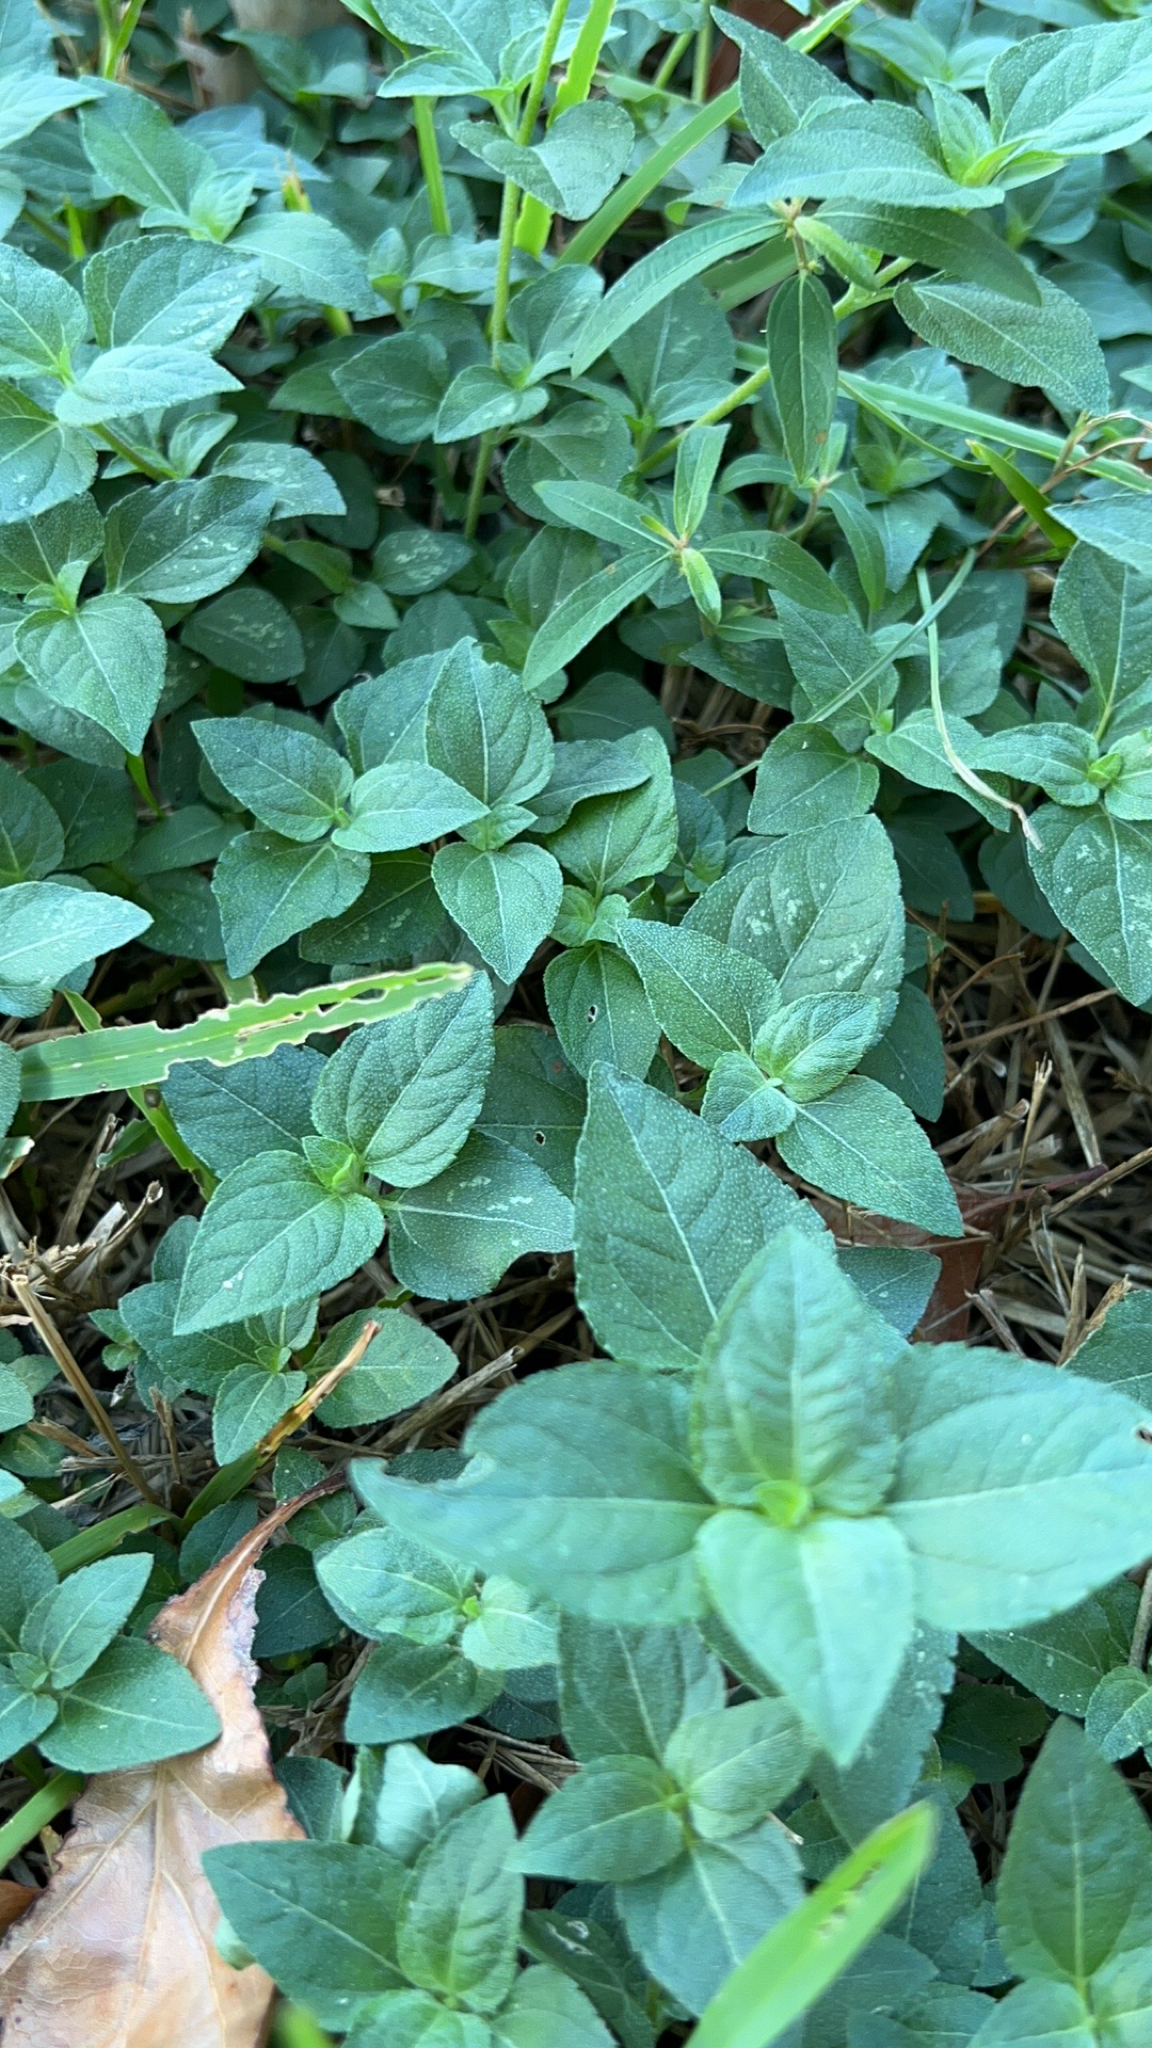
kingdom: Plantae
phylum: Tracheophyta
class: Magnoliopsida
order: Asterales
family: Asteraceae
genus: Calyptocarpus
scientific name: Calyptocarpus vialis
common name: Straggler daisy
